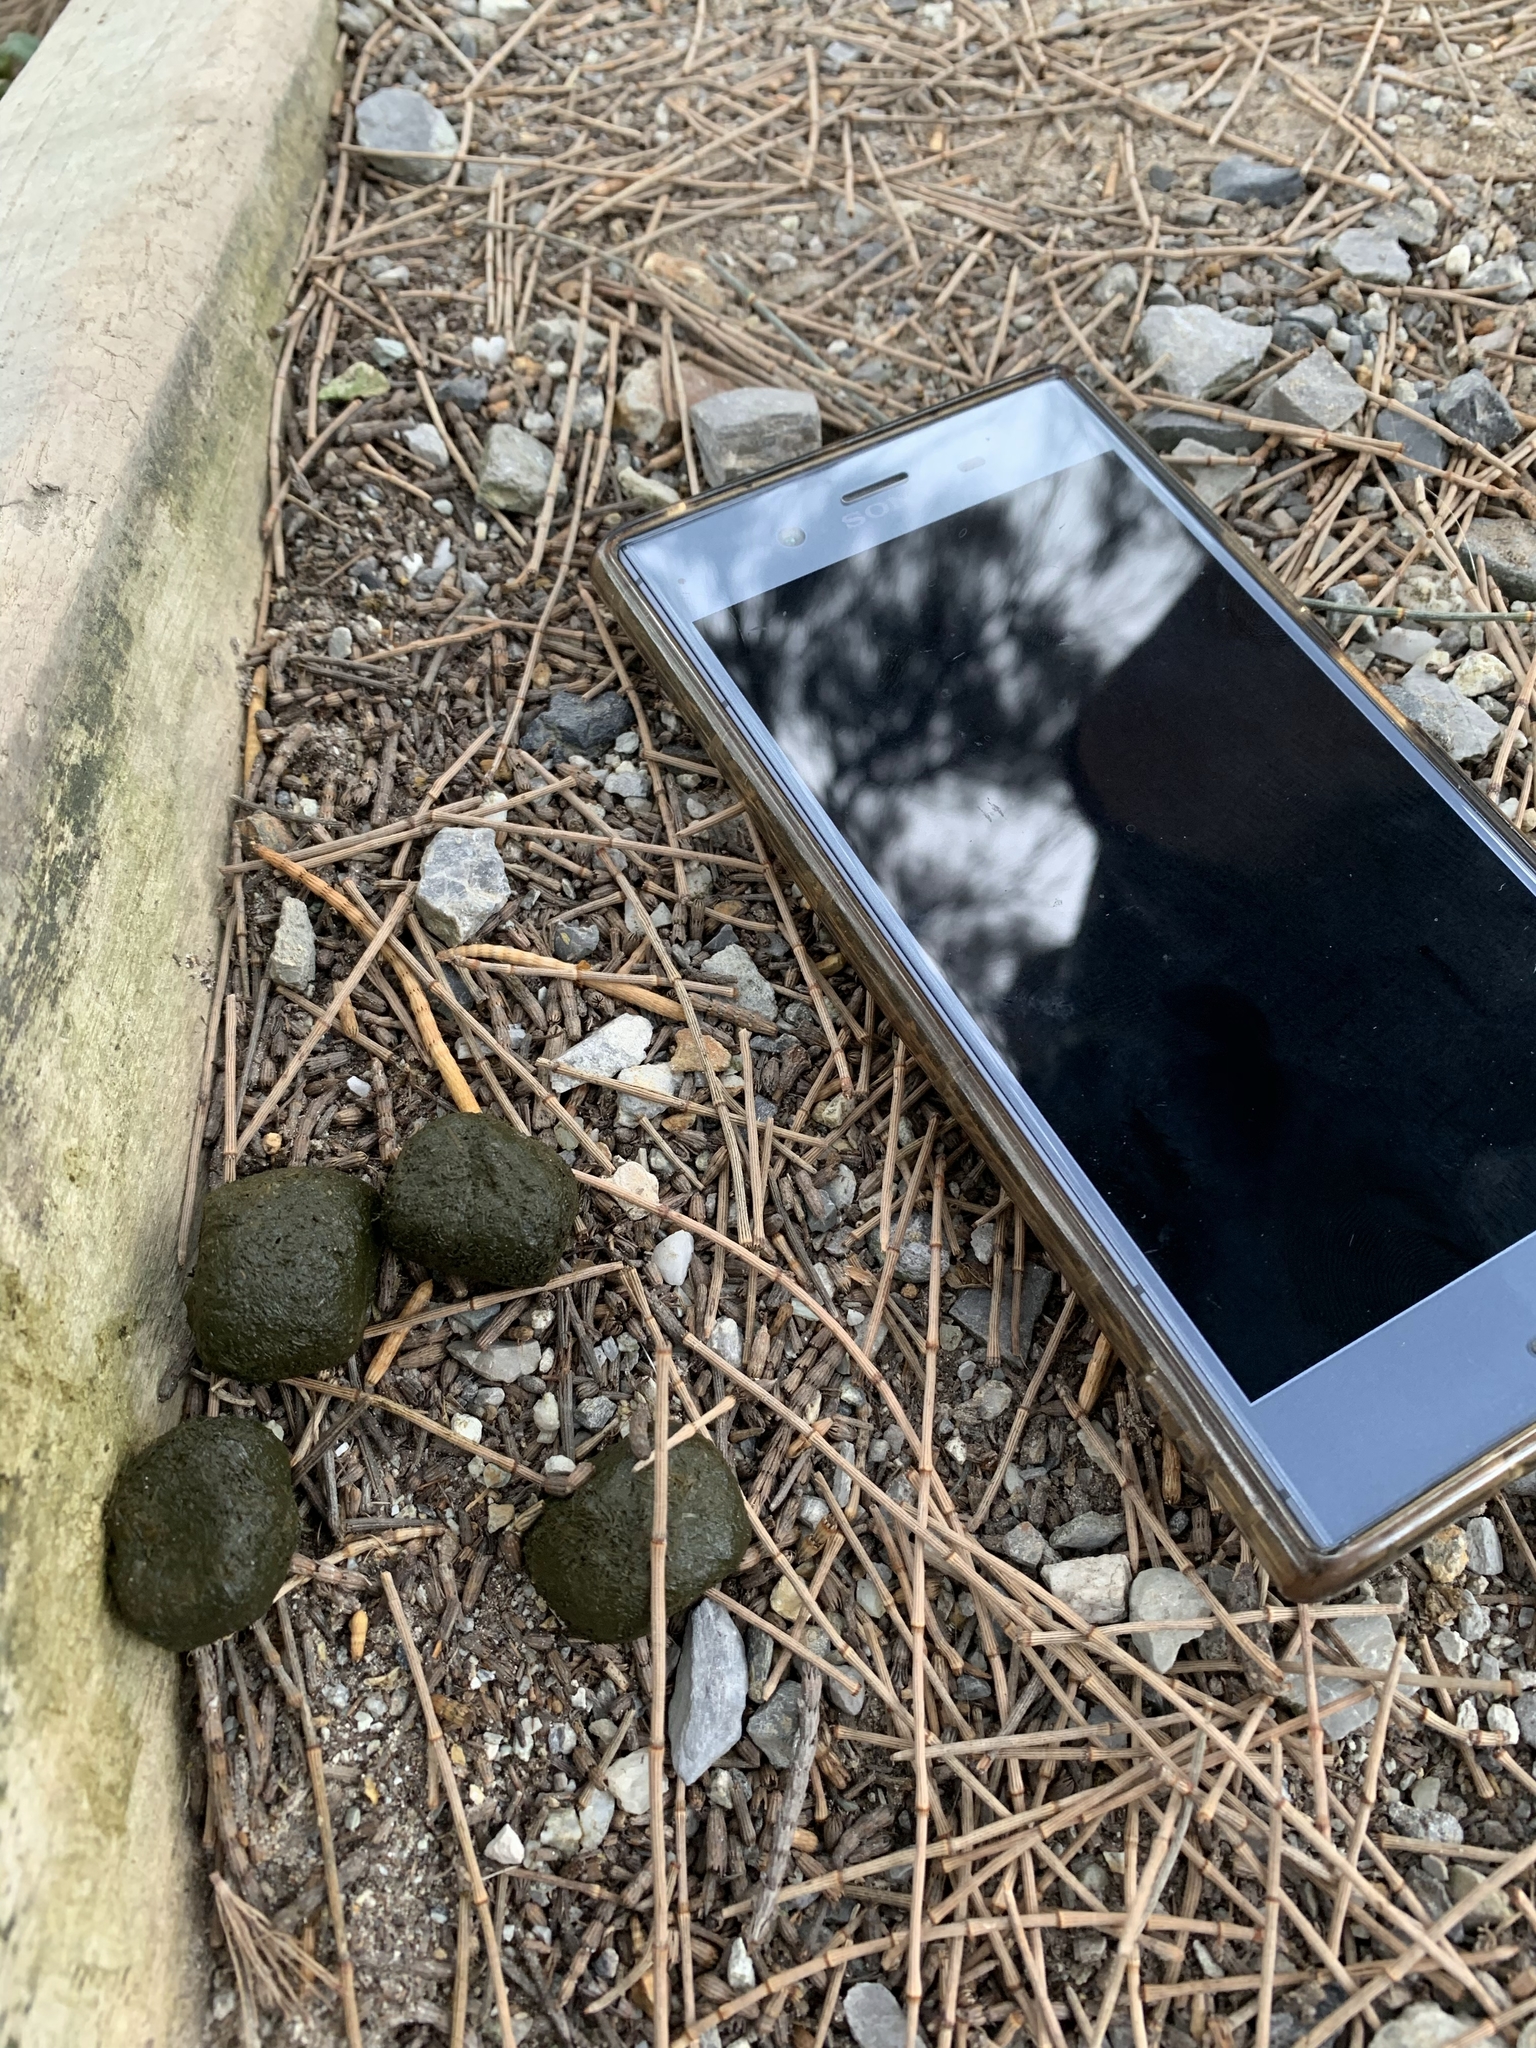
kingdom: Animalia
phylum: Chordata
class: Mammalia
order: Diprotodontia
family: Vombatidae
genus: Vombatus
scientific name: Vombatus ursinus
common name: Common wombat
